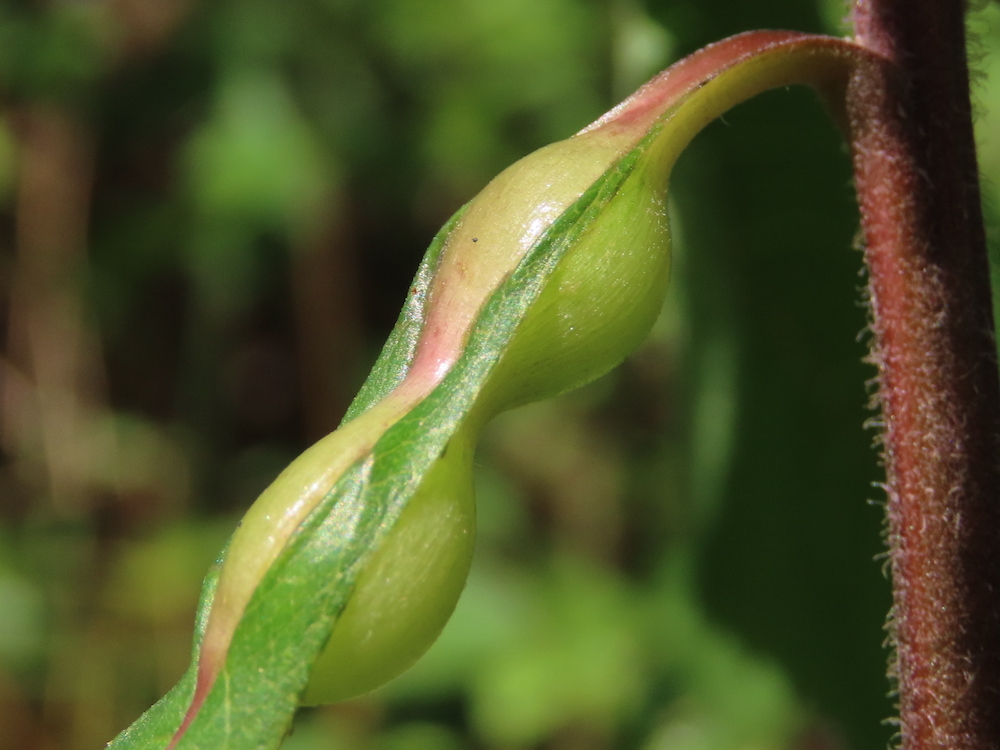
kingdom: Animalia
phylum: Arthropoda
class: Insecta
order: Diptera
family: Cecidomyiidae
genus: Neolasioptera
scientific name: Neolasioptera vernoniae
